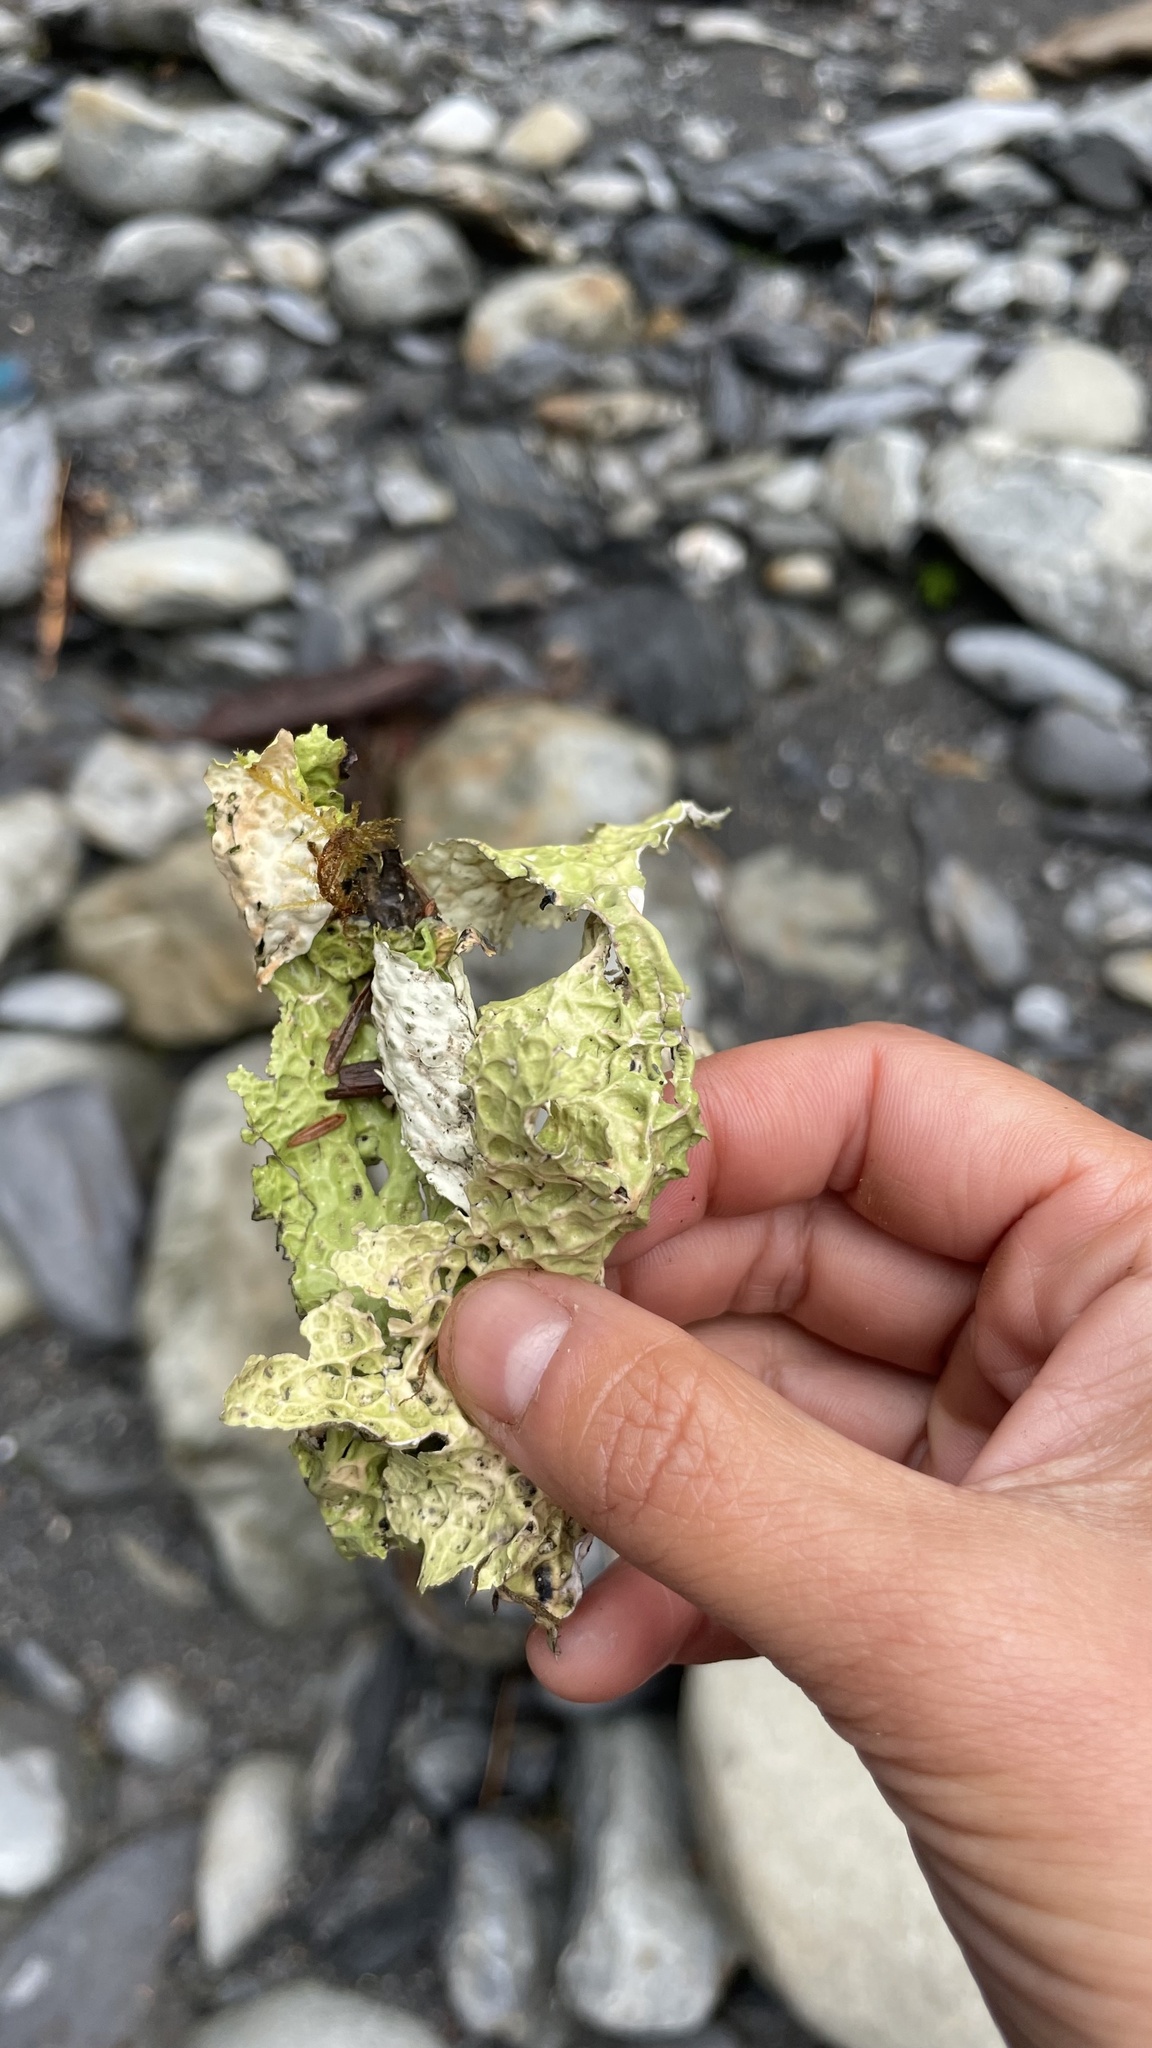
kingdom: Fungi
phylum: Ascomycota
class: Lecanoromycetes
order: Peltigerales
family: Lobariaceae
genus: Lobaria
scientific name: Lobaria oregana
